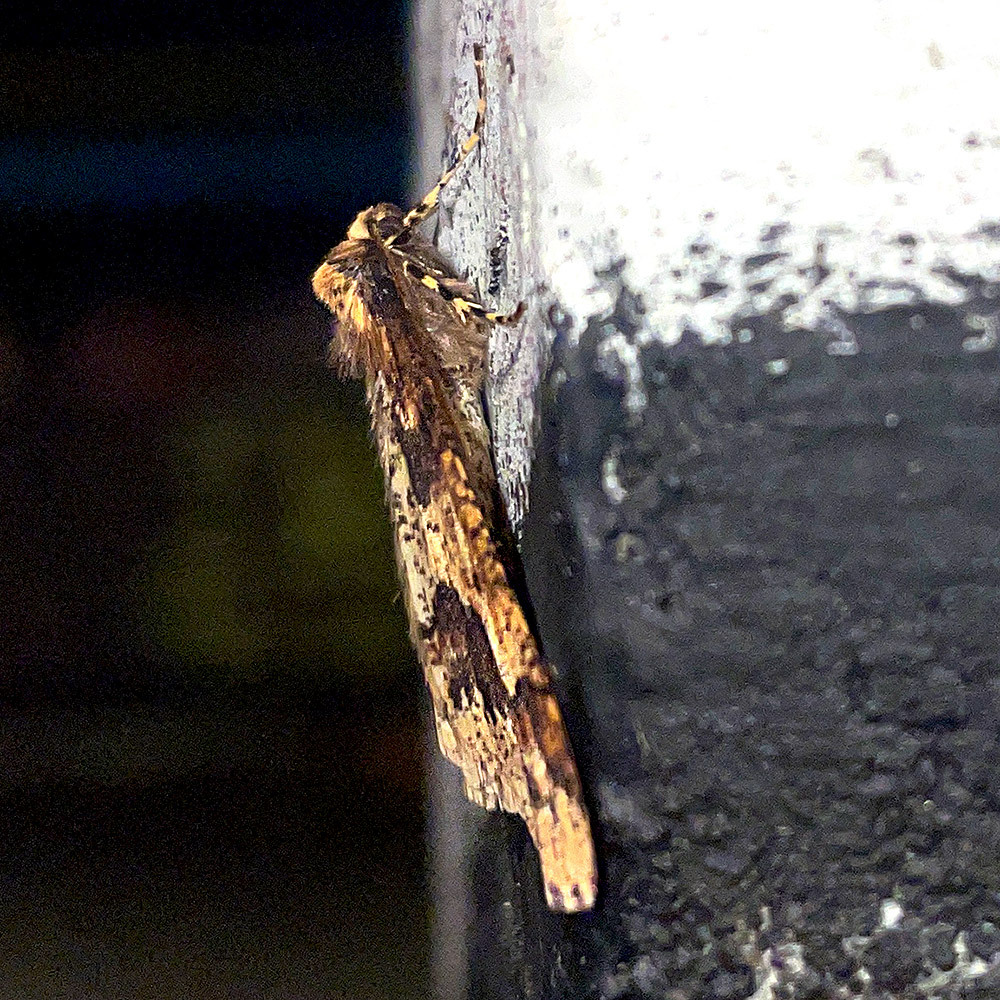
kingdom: Animalia
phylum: Arthropoda
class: Insecta
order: Lepidoptera
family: Geometridae
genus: Erannis
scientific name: Erannis defoliaria
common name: Mottled umber
